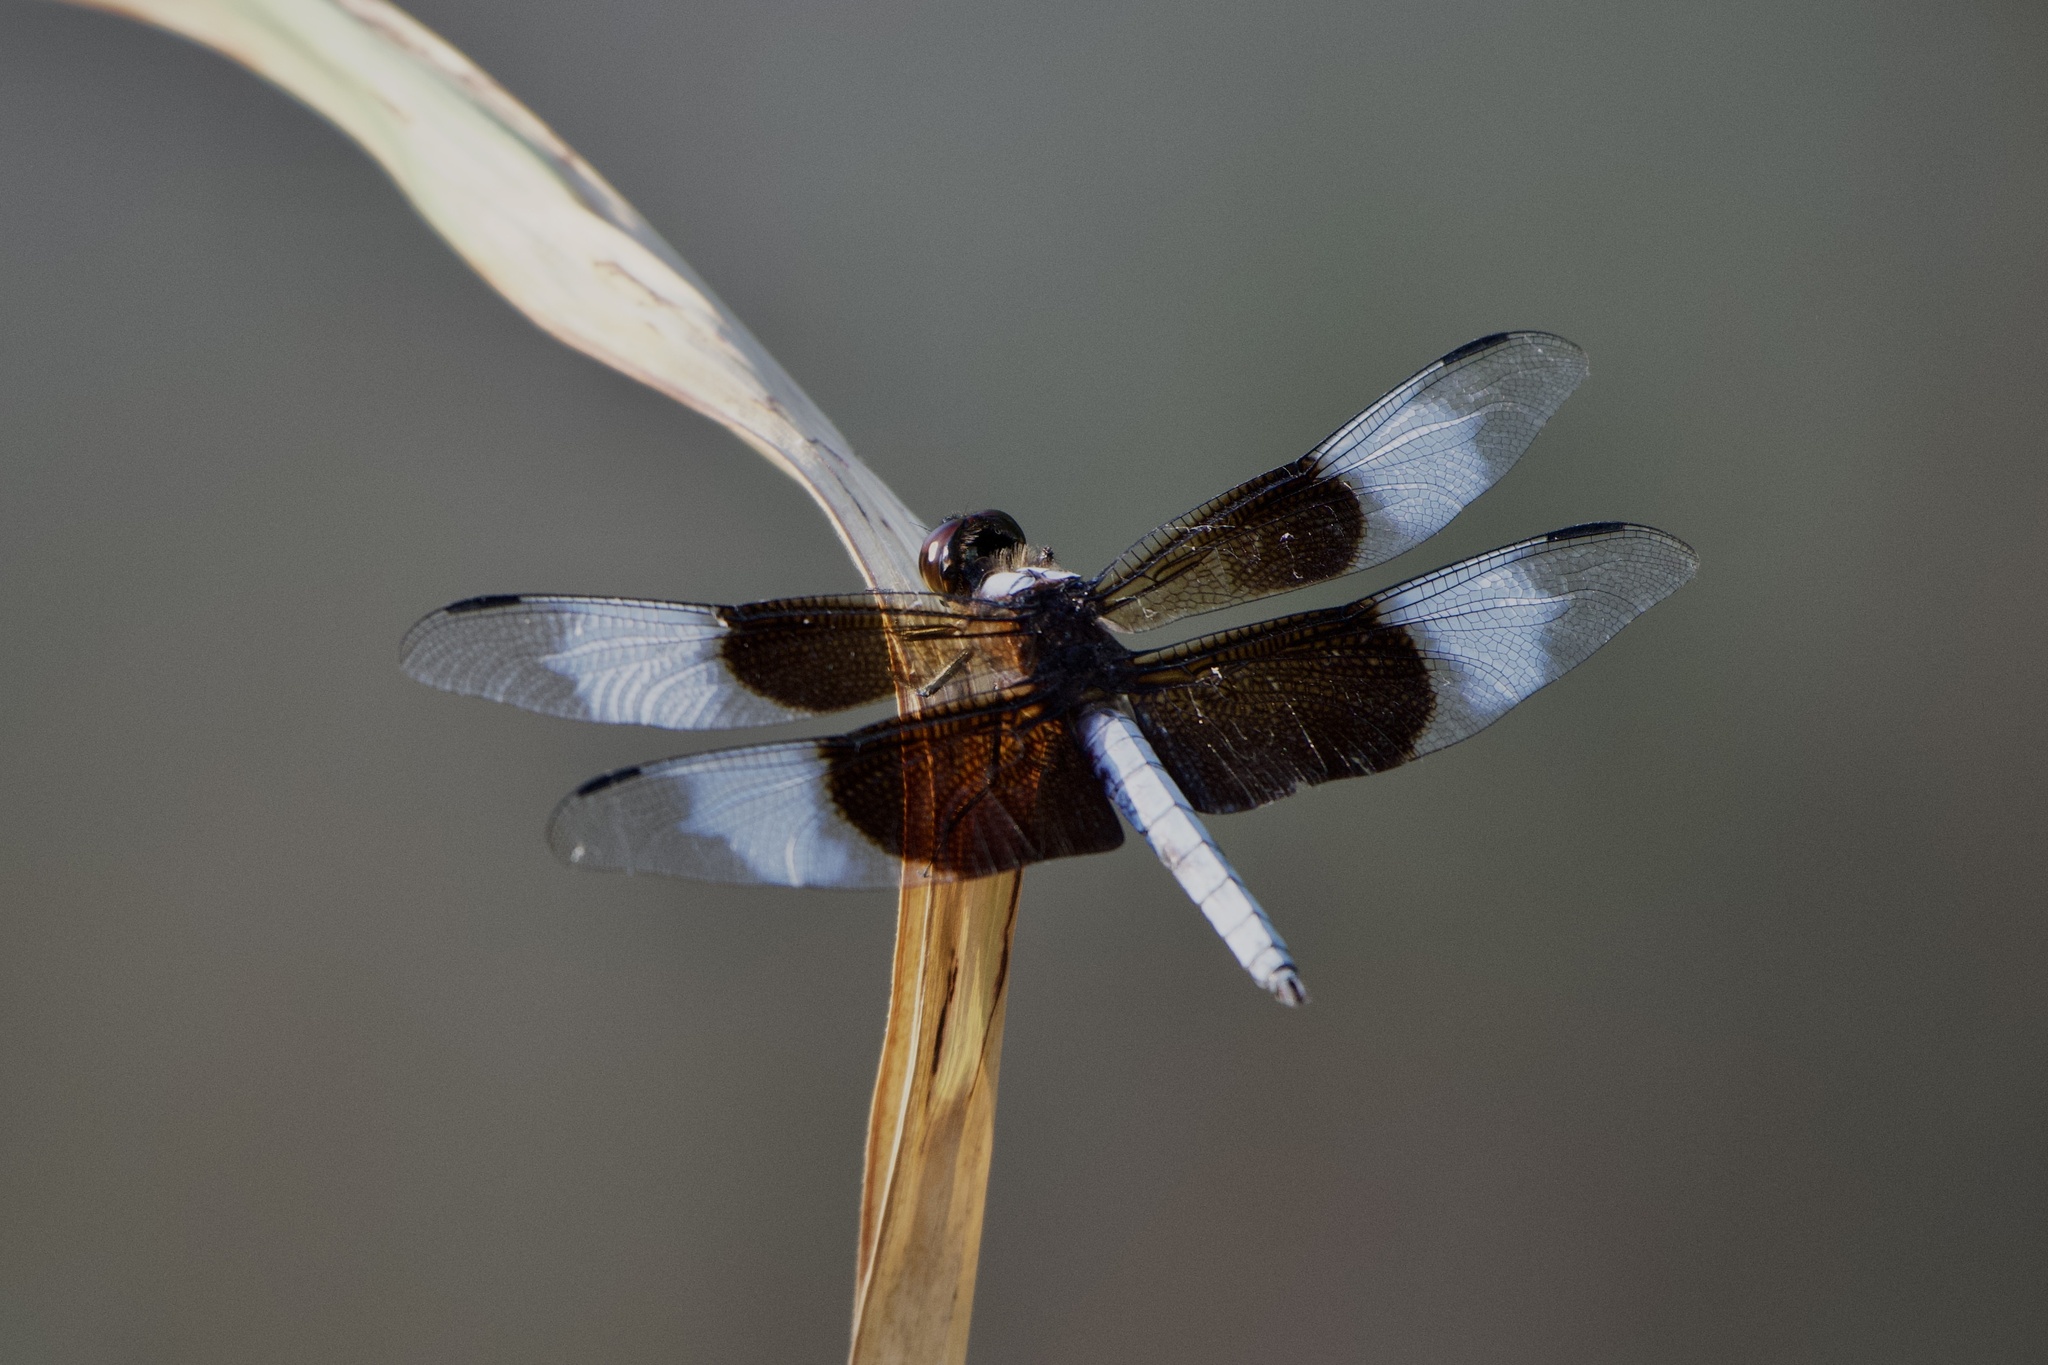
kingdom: Animalia
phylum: Arthropoda
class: Insecta
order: Odonata
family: Libellulidae
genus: Libellula
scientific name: Libellula luctuosa
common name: Widow skimmer
